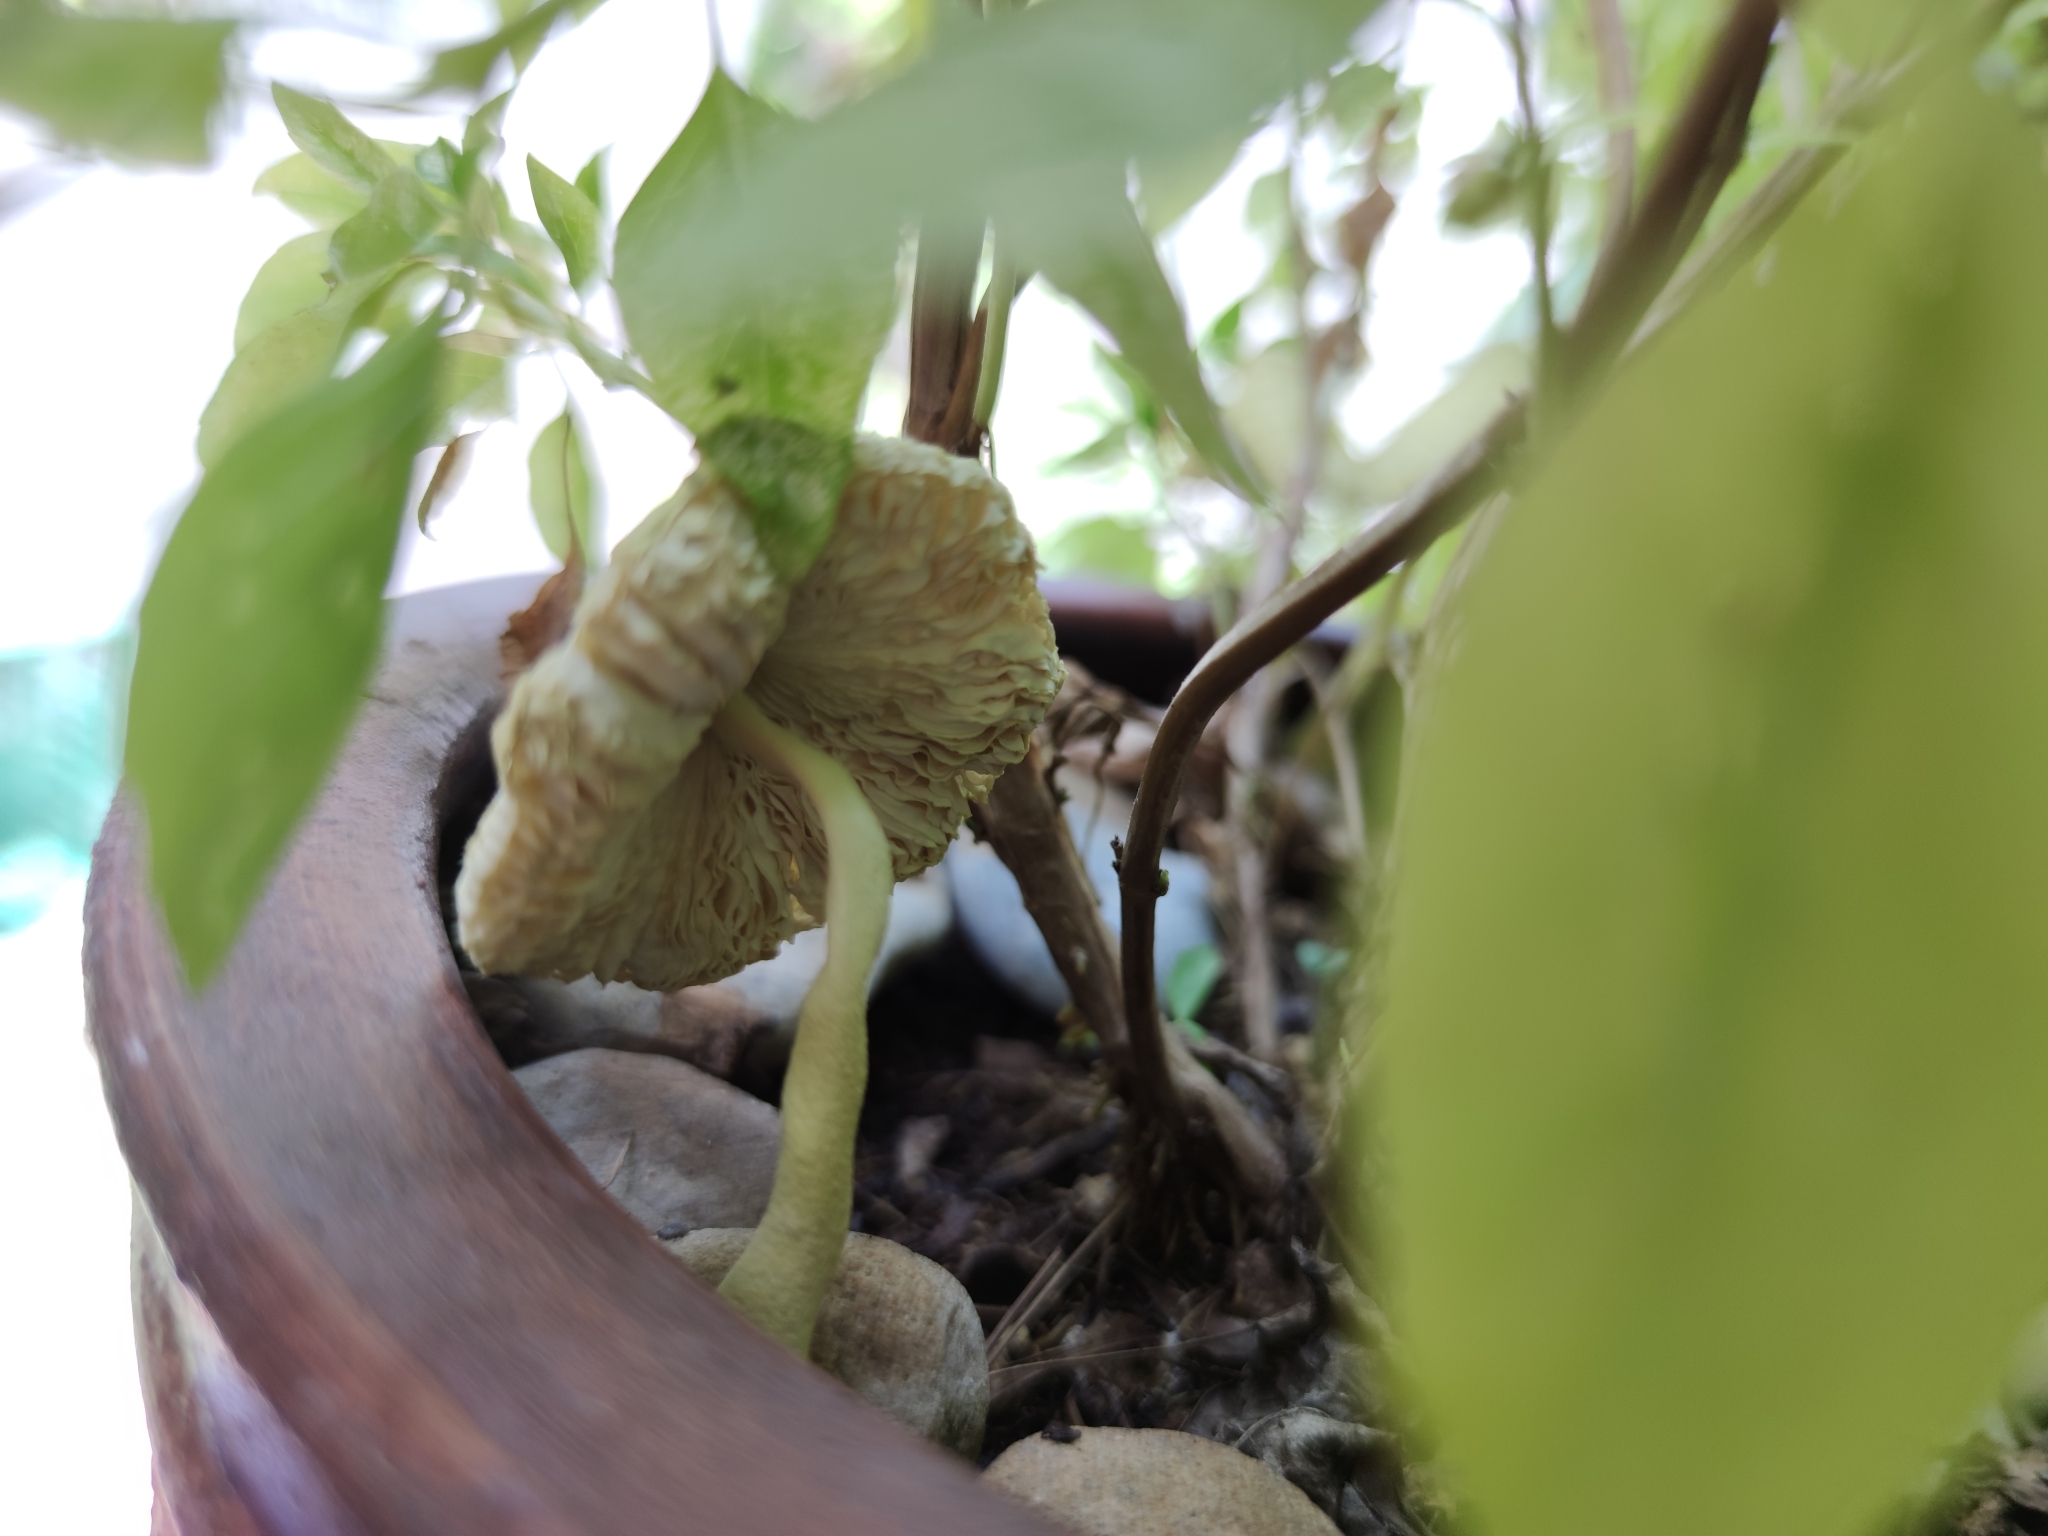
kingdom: Fungi
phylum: Basidiomycota
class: Agaricomycetes
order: Agaricales
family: Agaricaceae
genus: Leucocoprinus
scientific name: Leucocoprinus birnbaumii
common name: Plantpot dapperling
